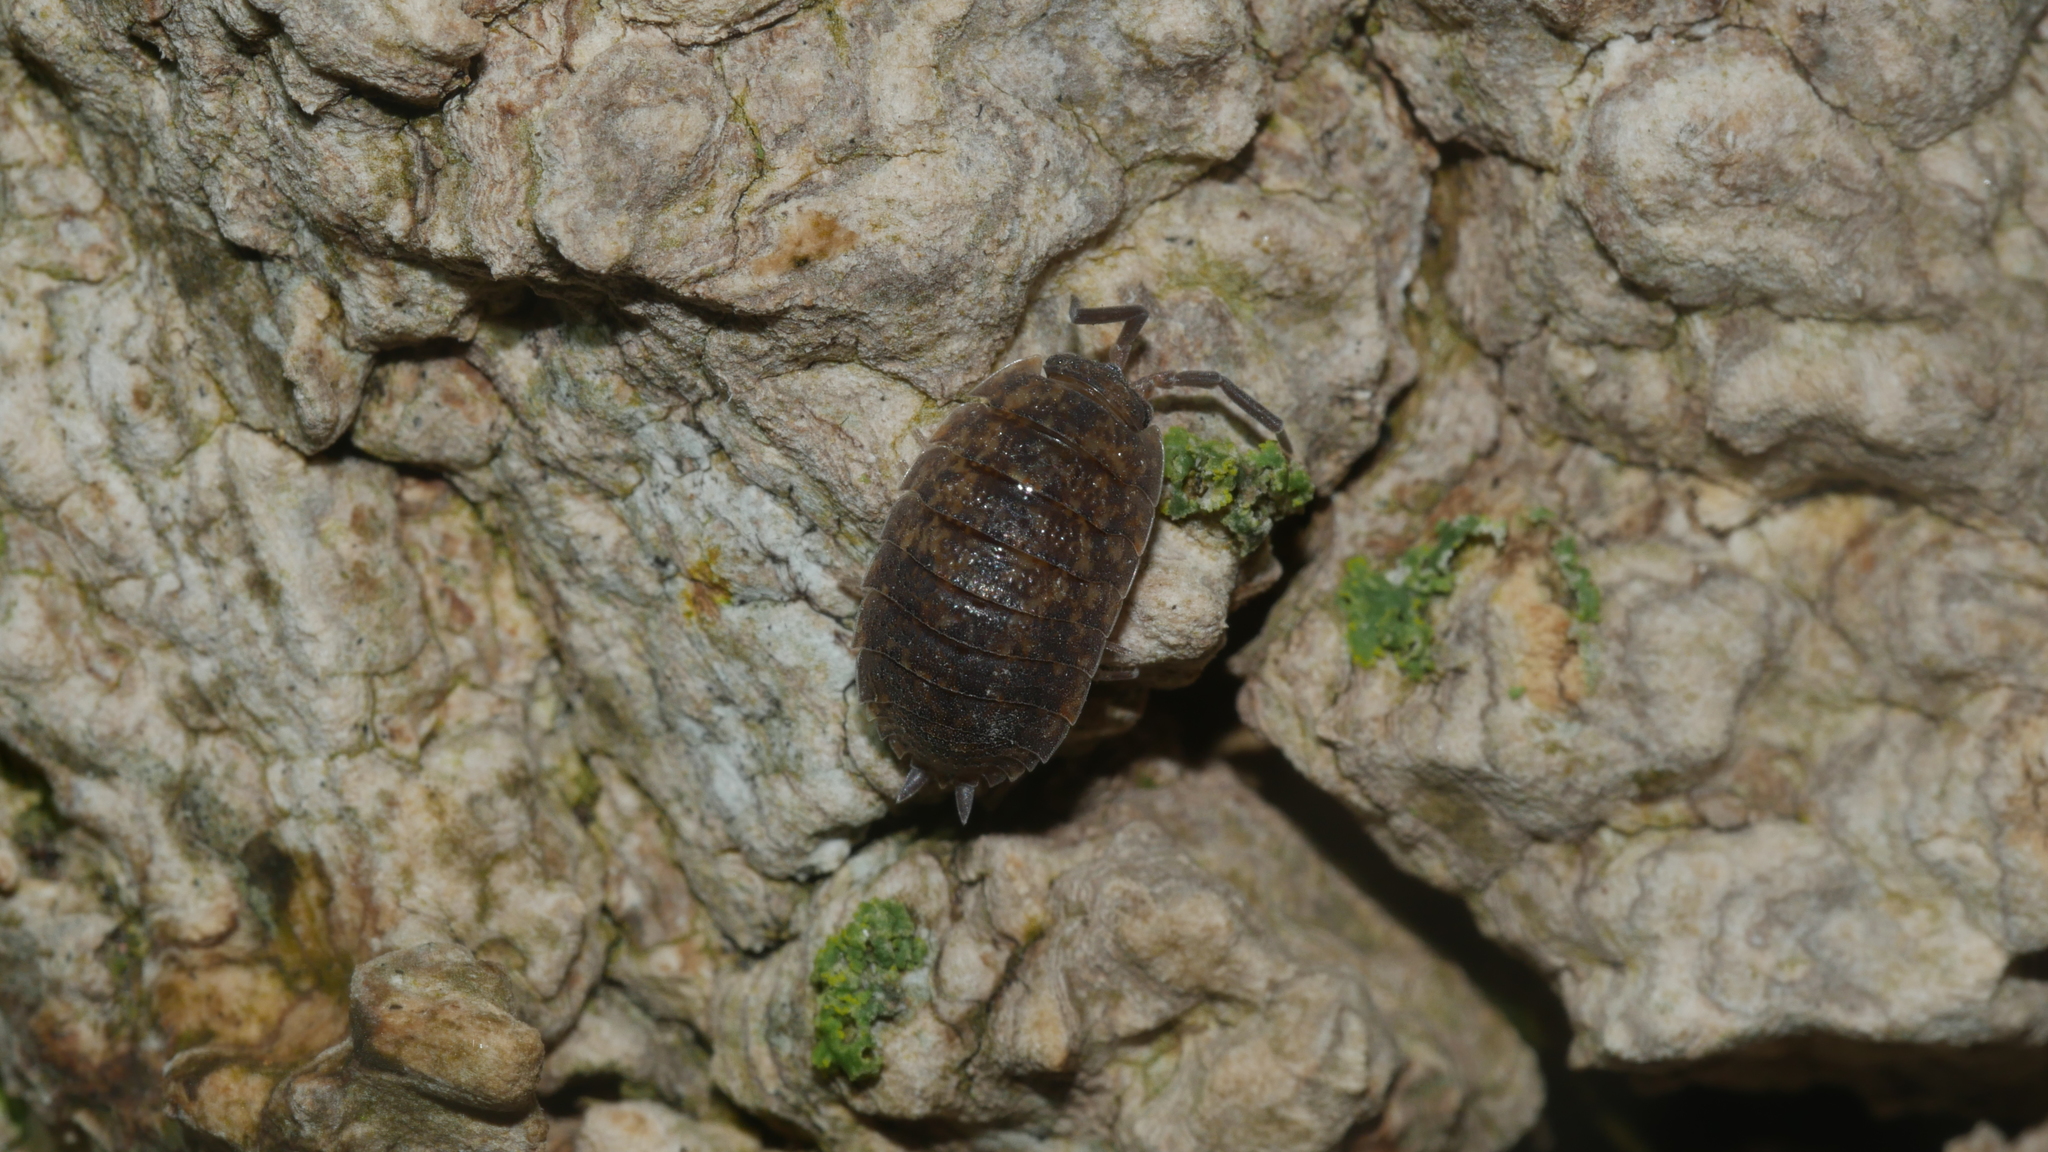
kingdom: Animalia
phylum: Arthropoda
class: Malacostraca
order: Isopoda
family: Porcellionidae
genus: Porcellio
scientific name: Porcellio scaber
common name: Common rough woodlouse
